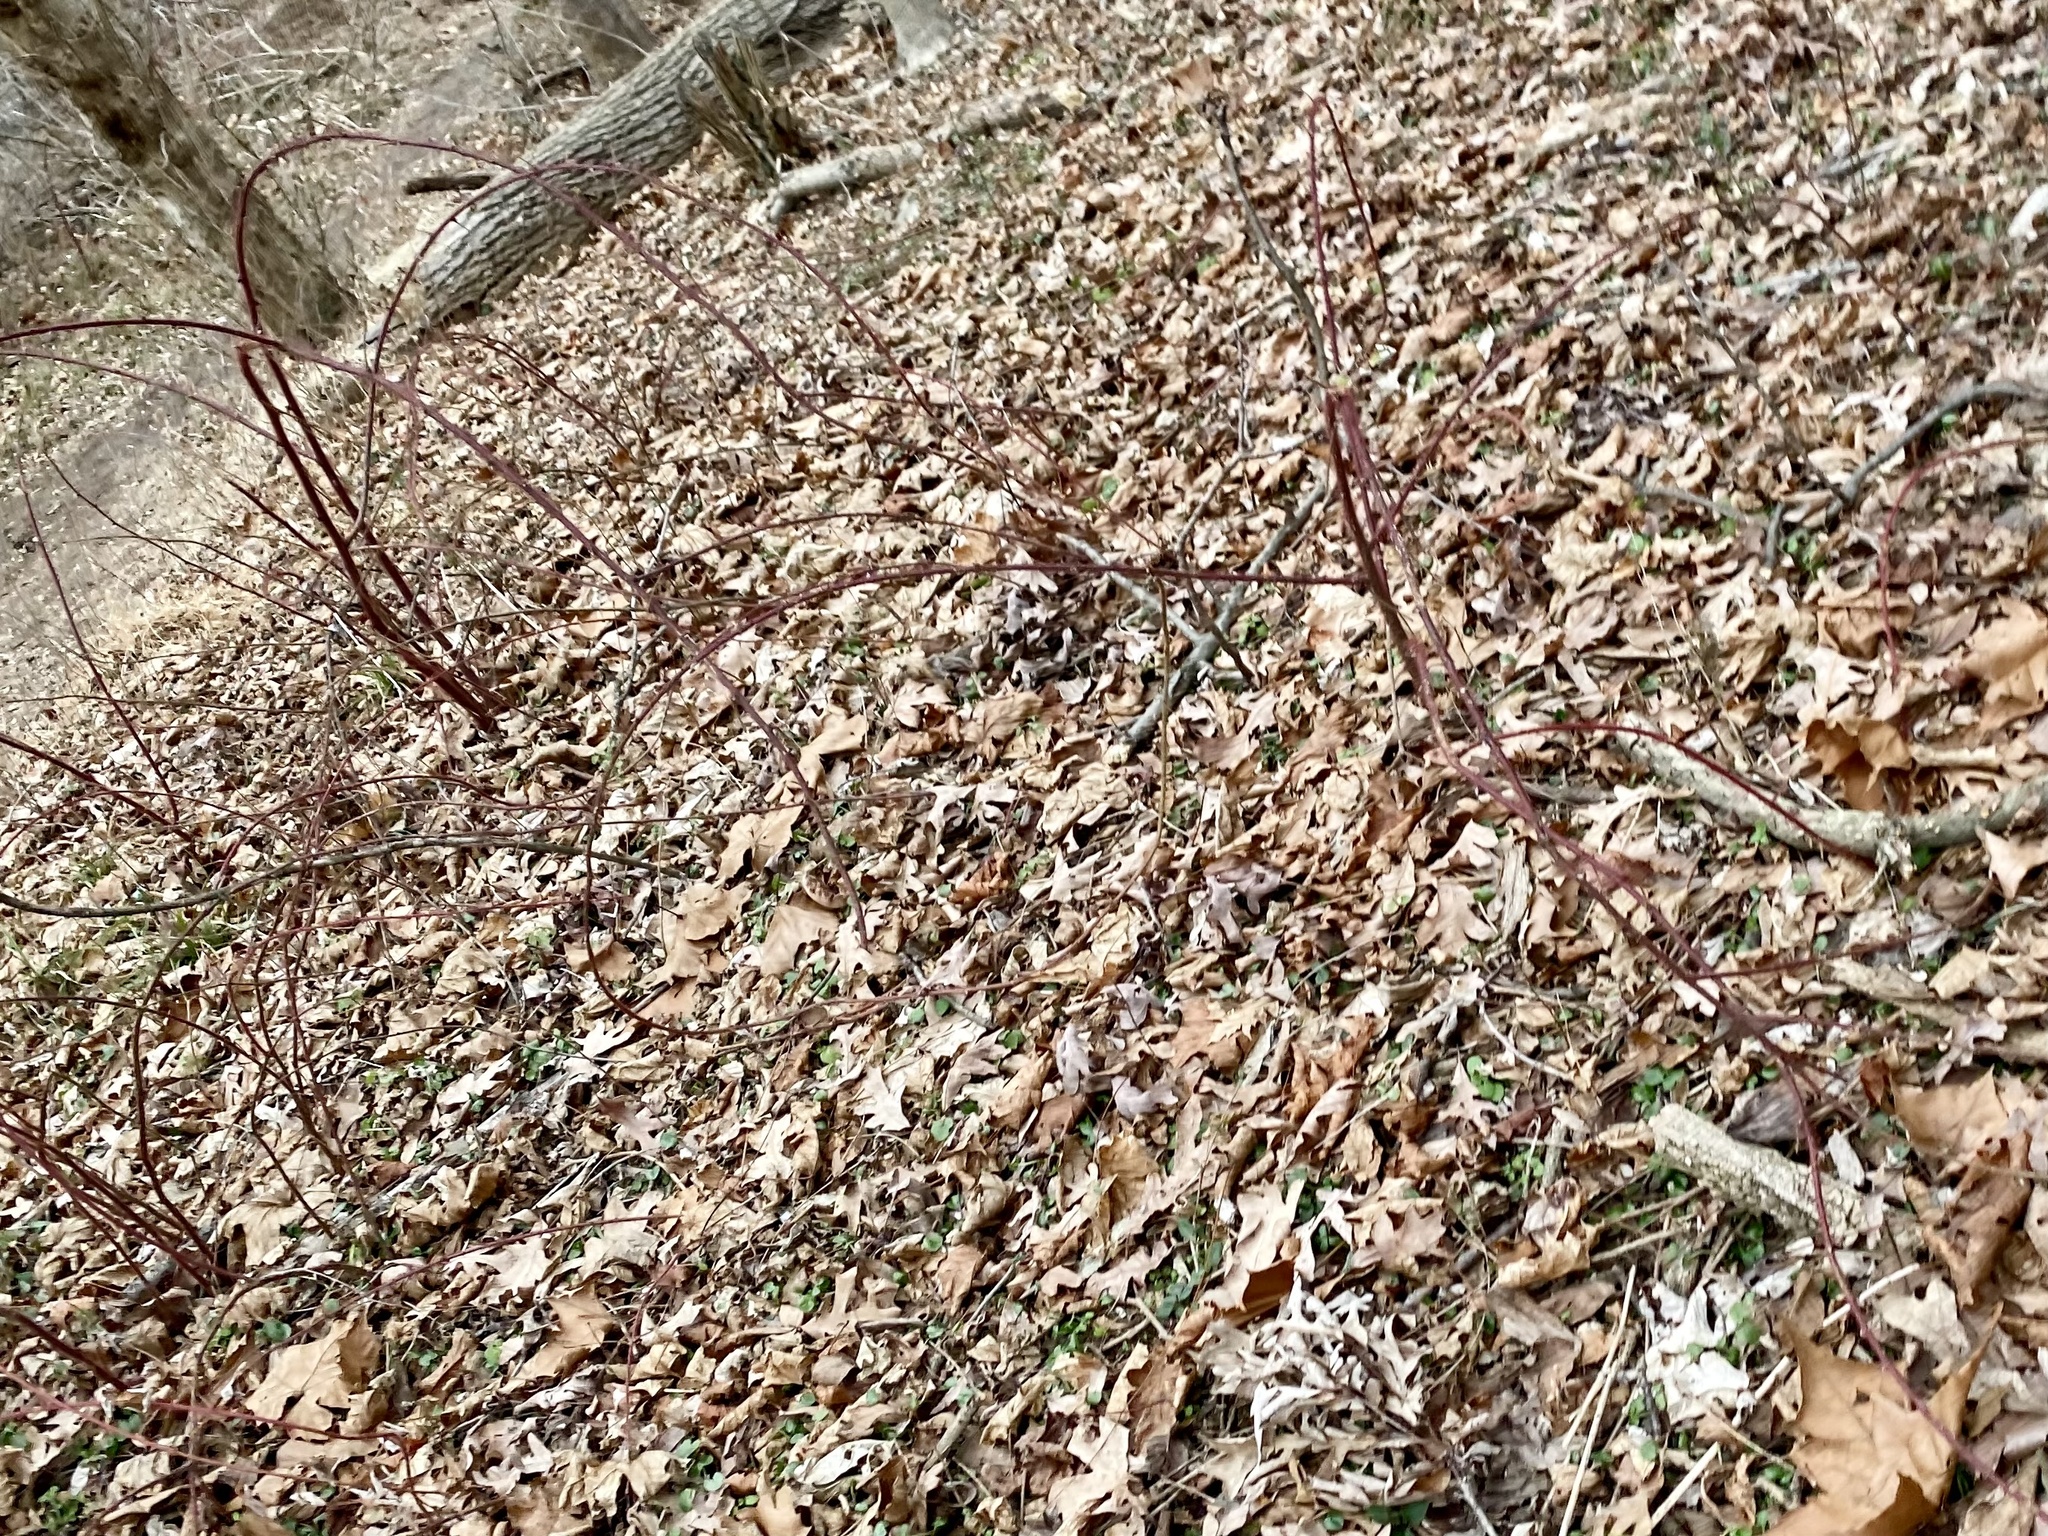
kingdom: Plantae
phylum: Tracheophyta
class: Magnoliopsida
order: Rosales
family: Rosaceae
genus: Rubus
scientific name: Rubus phoenicolasius
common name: Japanese wineberry
